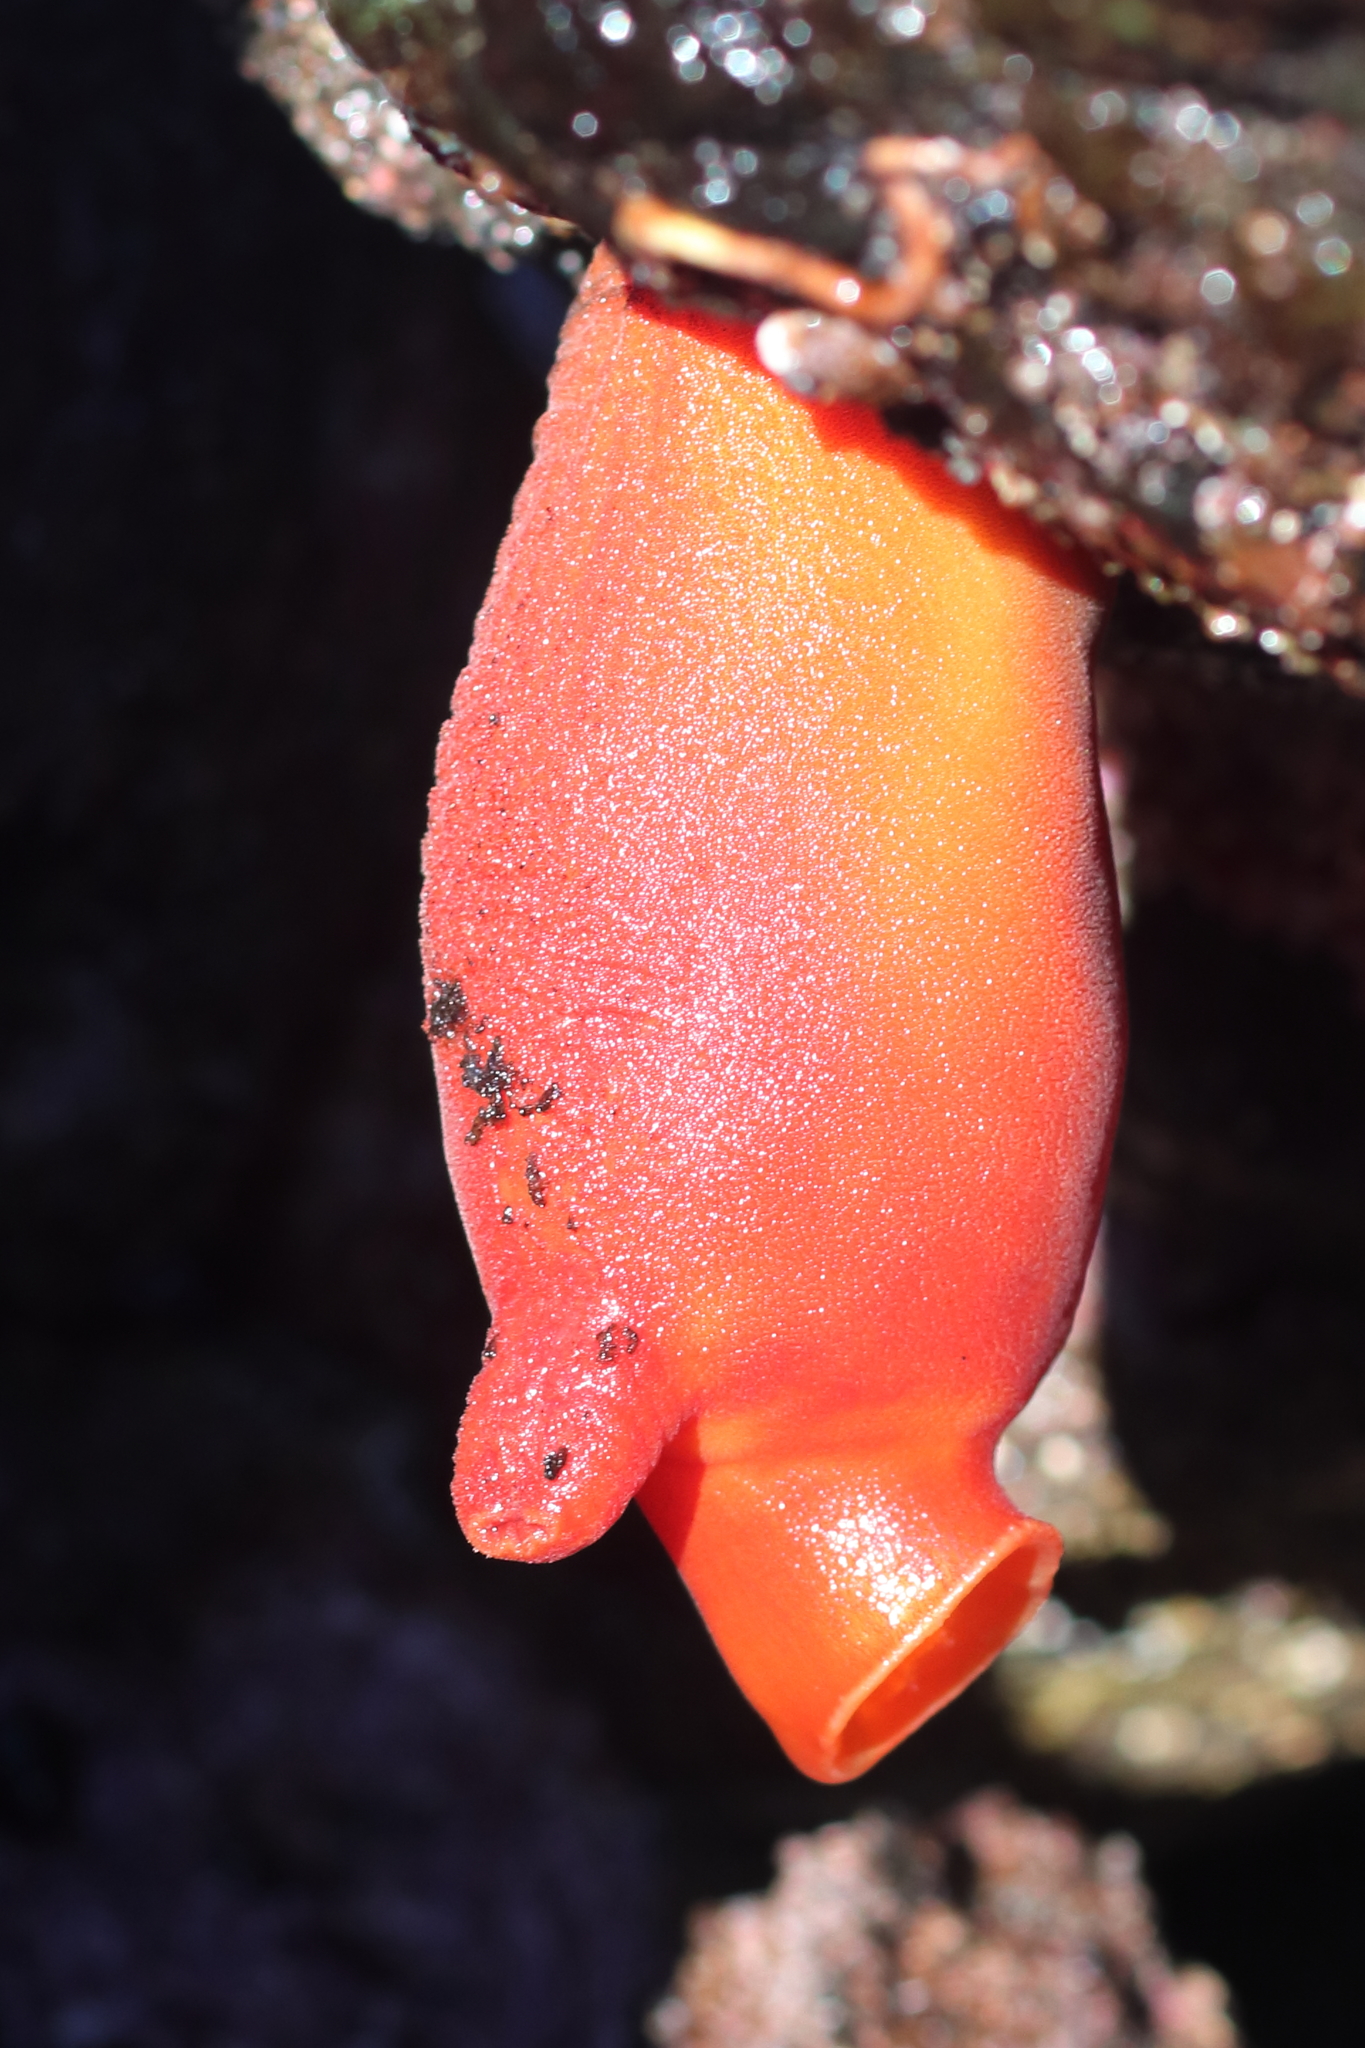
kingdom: Animalia
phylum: Chordata
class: Ascidiacea
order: Stolidobranchia
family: Pyuridae
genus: Halocynthia
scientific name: Halocynthia aurantium
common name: Sea peach
